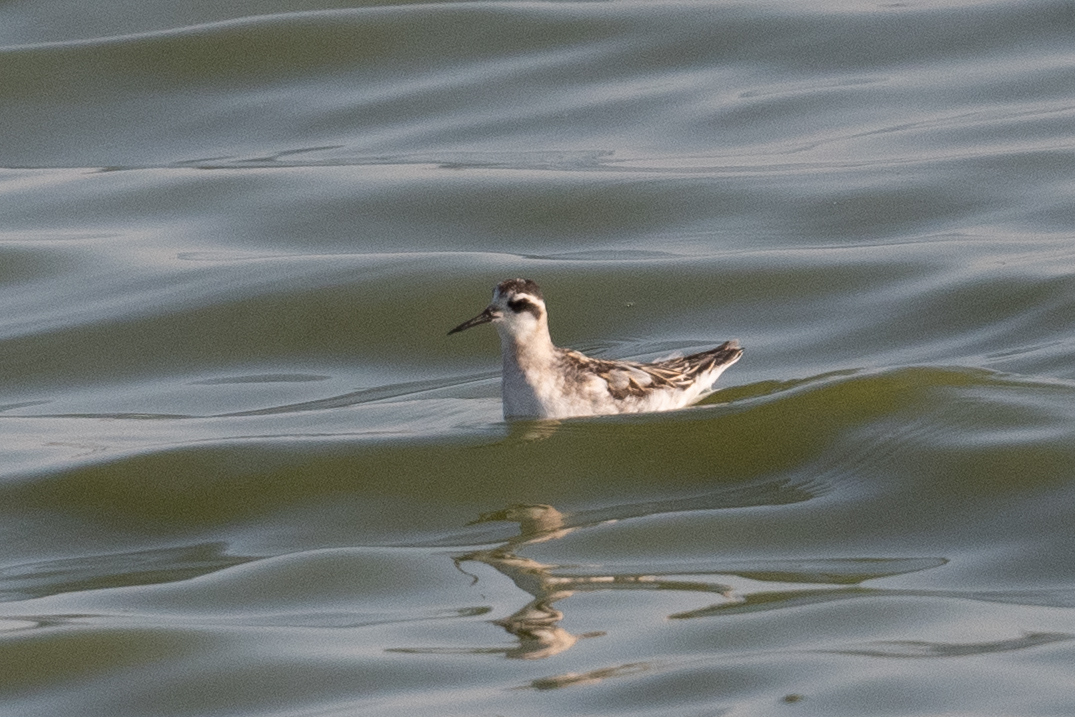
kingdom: Animalia
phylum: Chordata
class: Aves
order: Charadriiformes
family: Scolopacidae
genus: Phalaropus
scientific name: Phalaropus lobatus
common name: Red-necked phalarope
